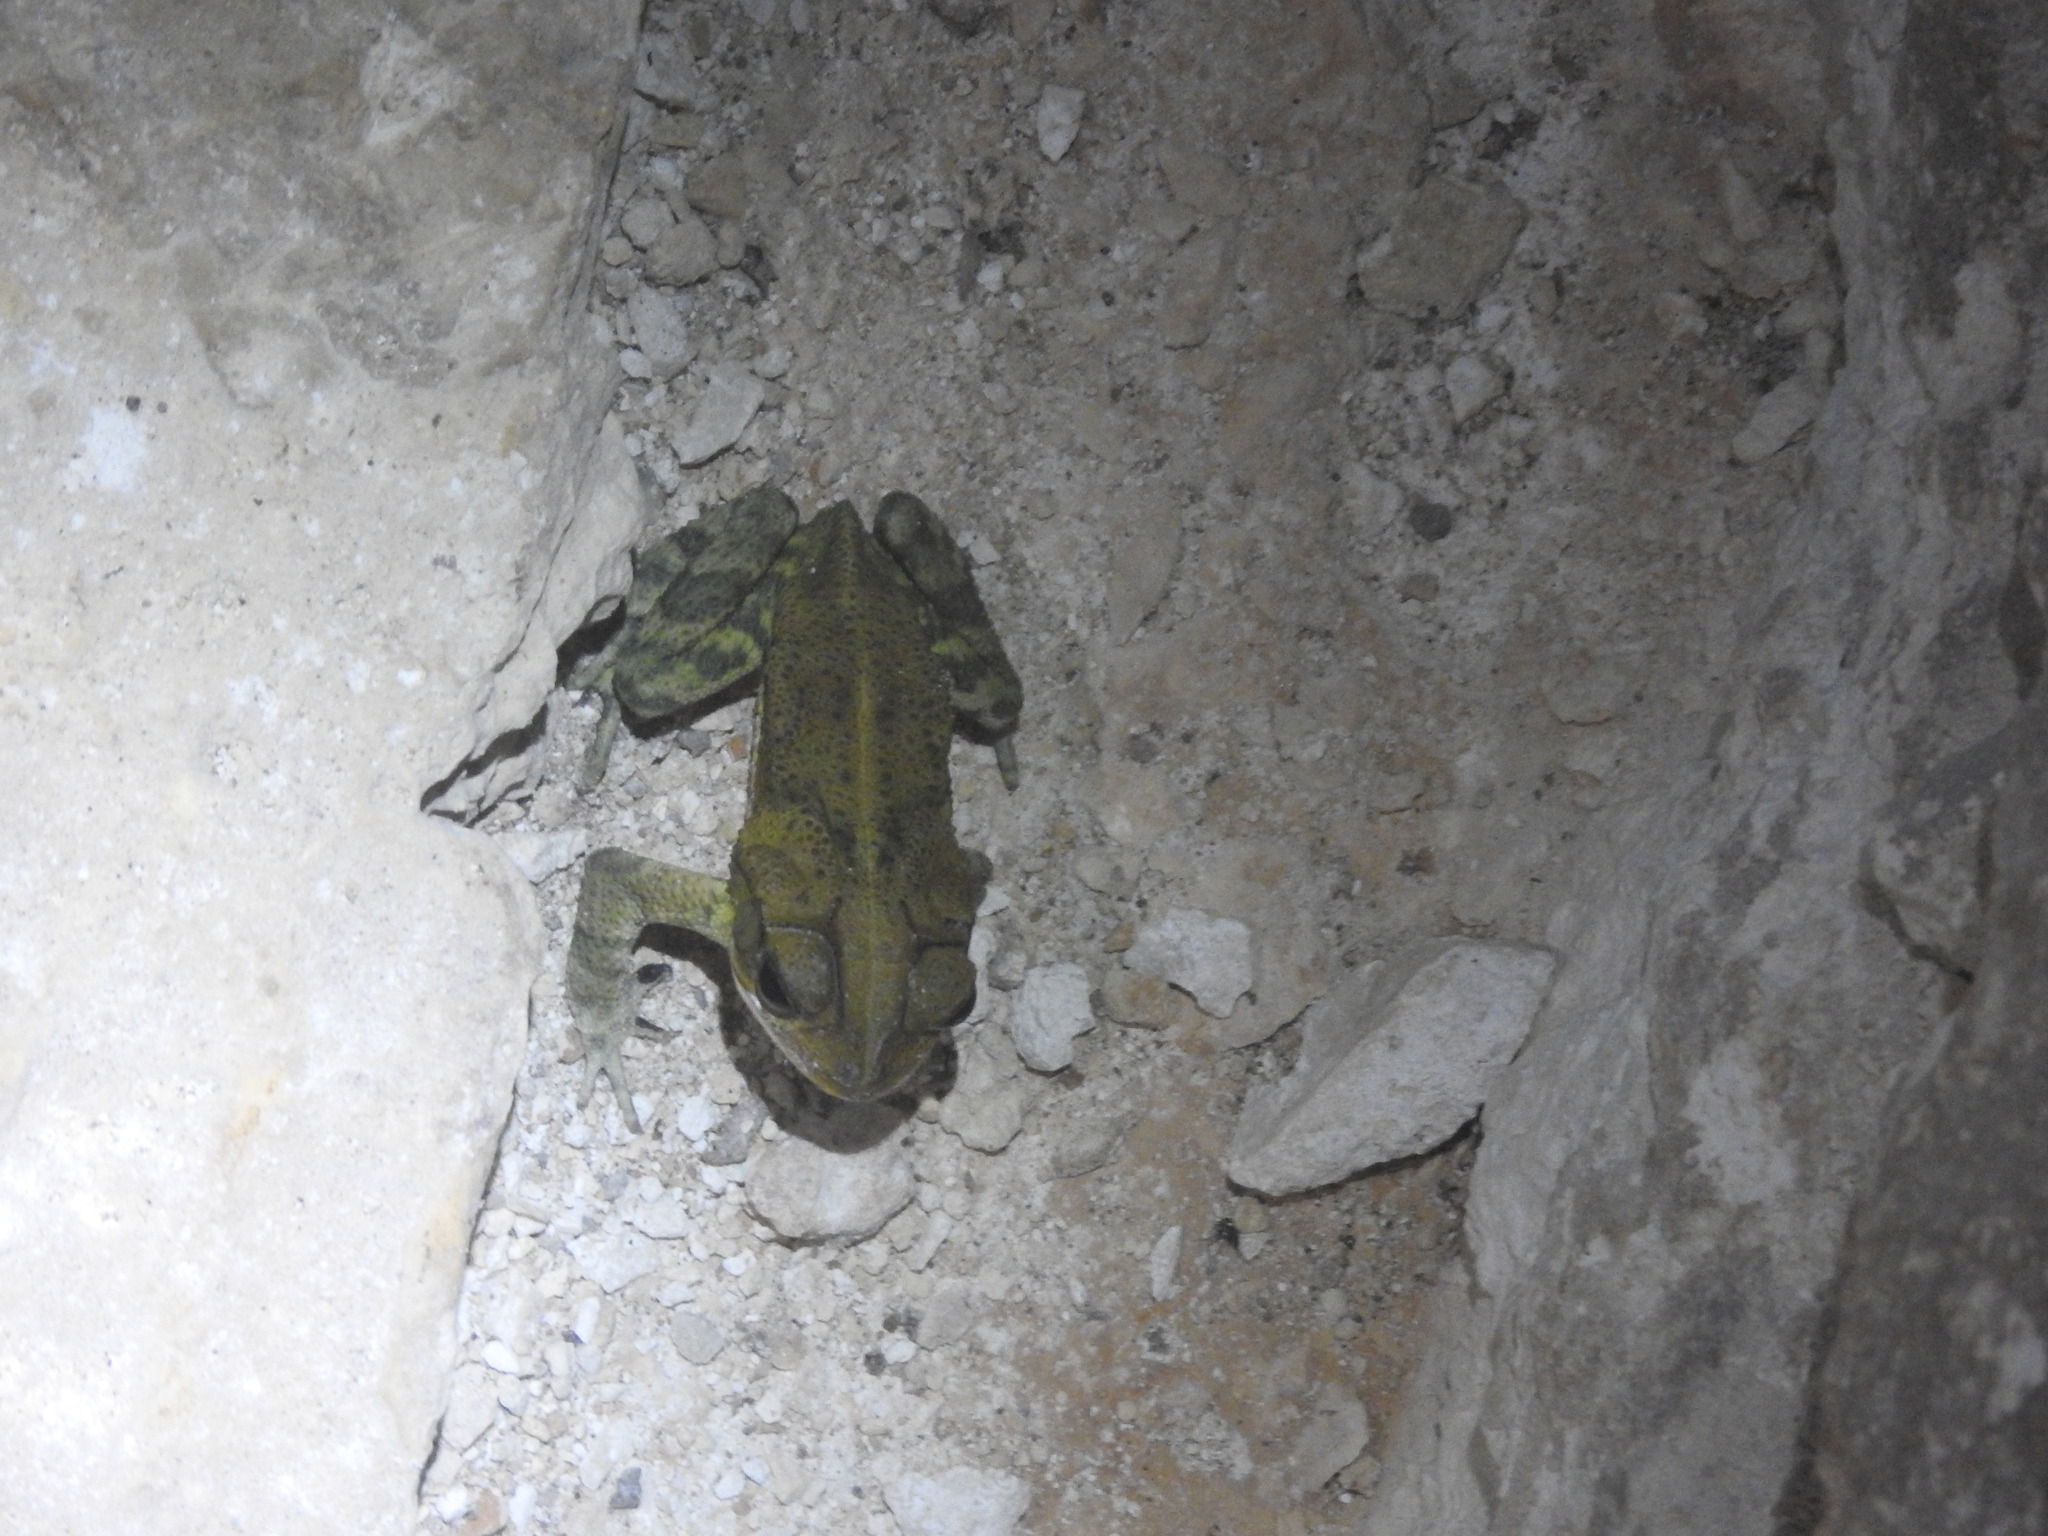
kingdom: Animalia
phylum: Chordata
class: Amphibia
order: Anura
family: Bufonidae
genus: Incilius
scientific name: Incilius valliceps
